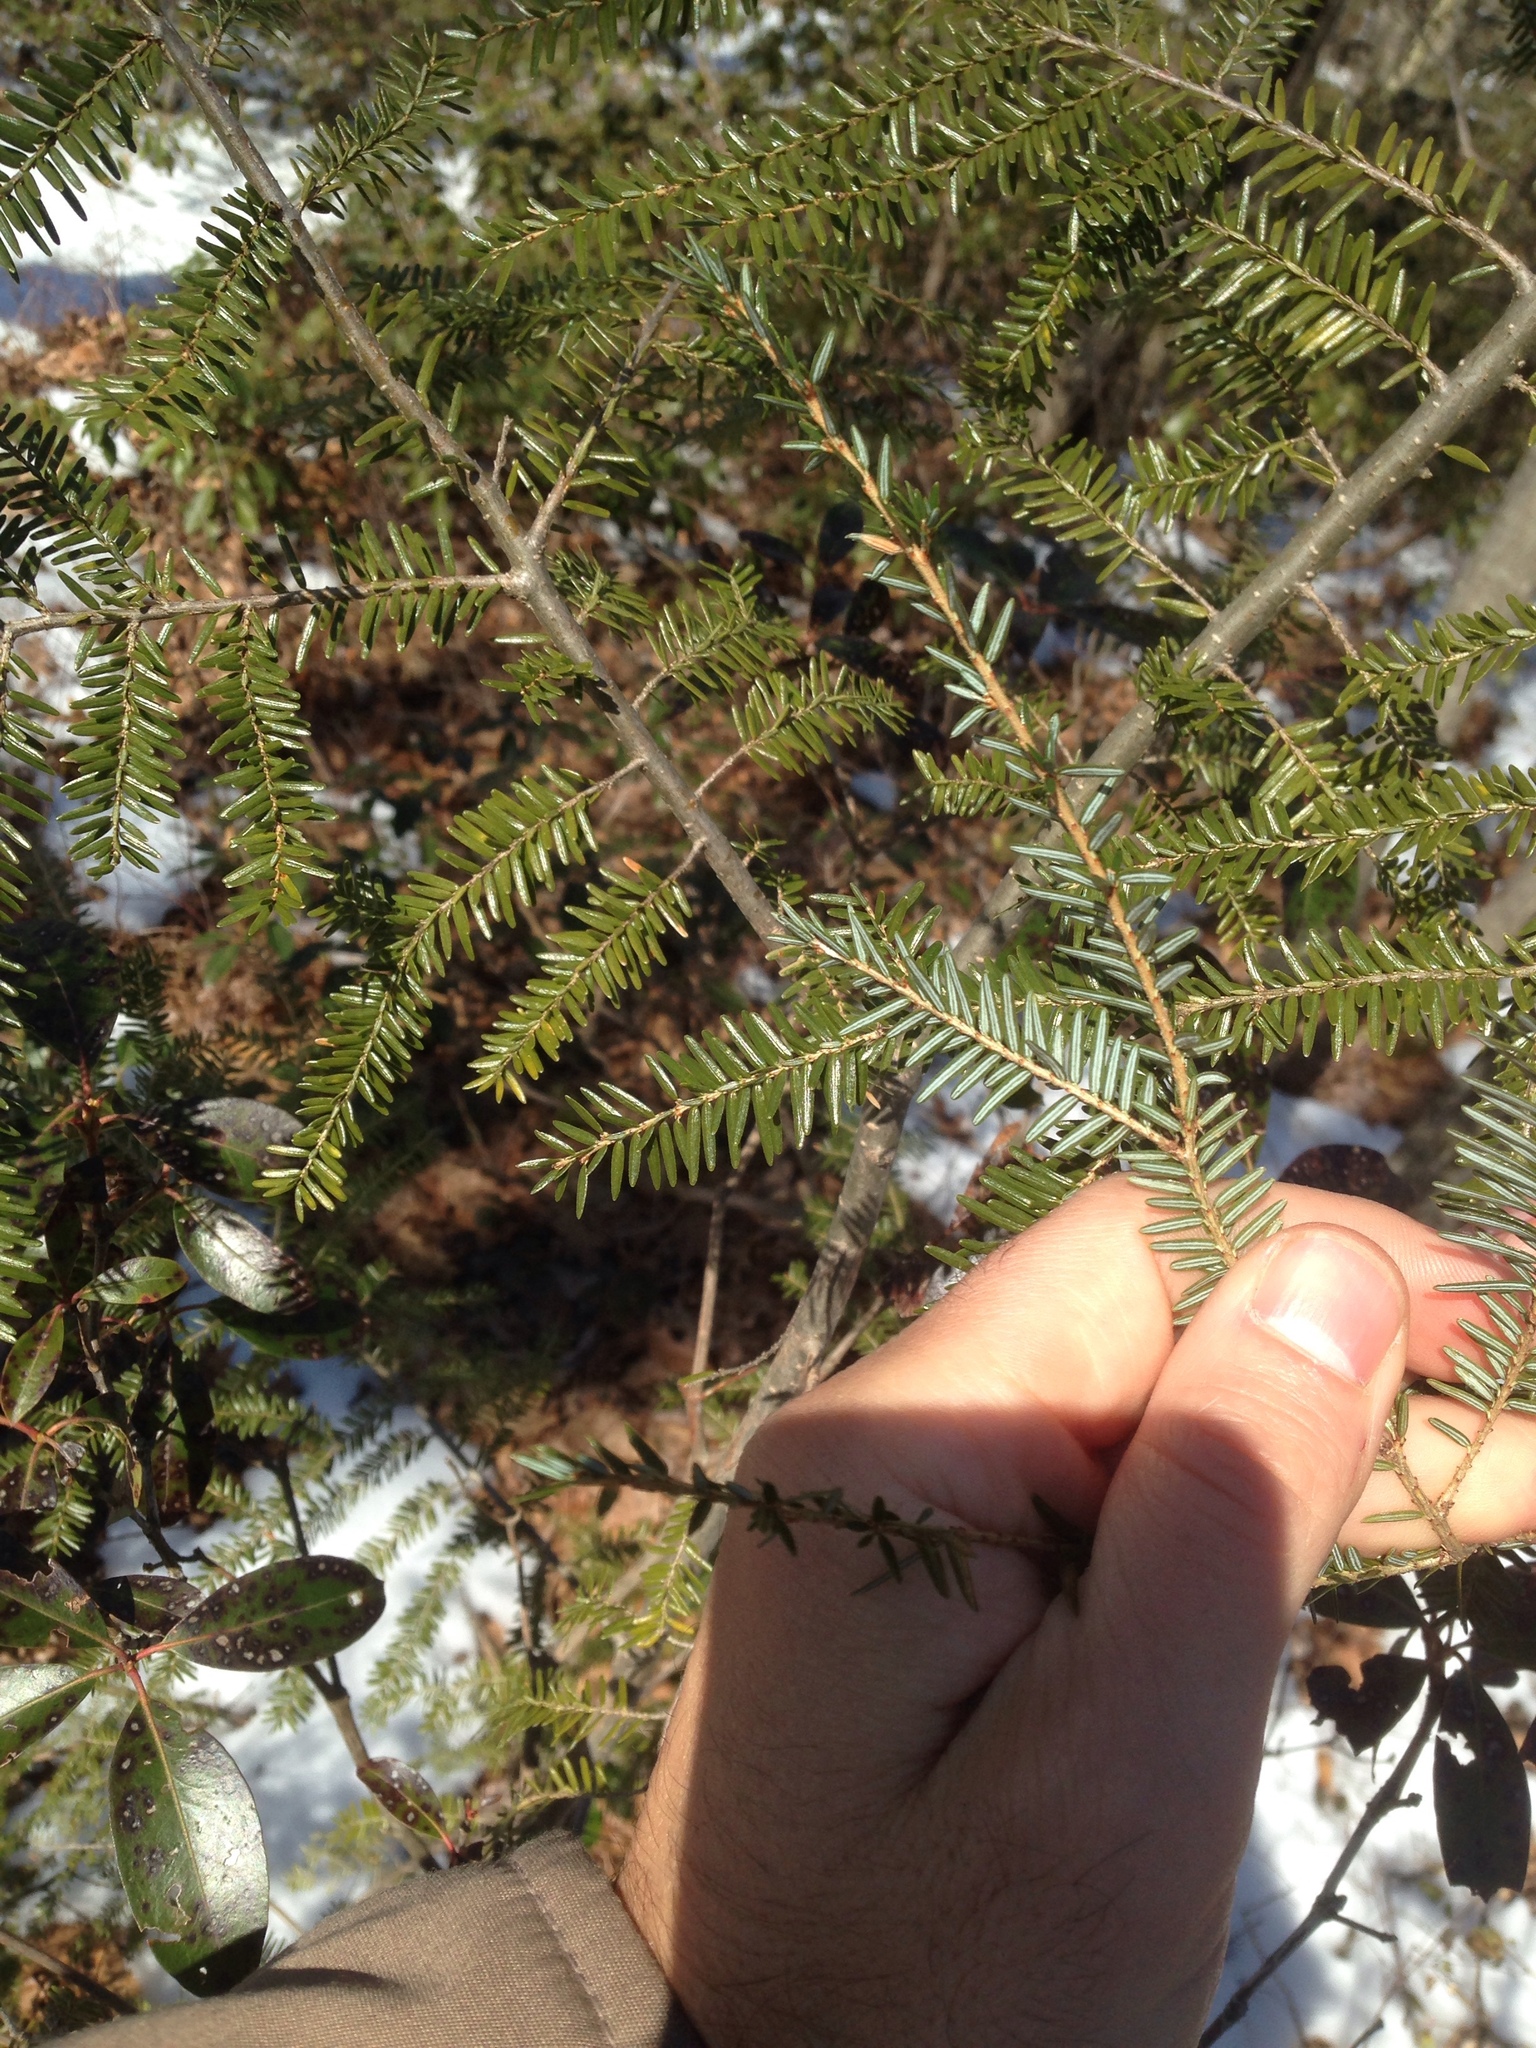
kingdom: Plantae
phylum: Tracheophyta
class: Pinopsida
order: Pinales
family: Pinaceae
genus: Tsuga
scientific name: Tsuga canadensis
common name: Eastern hemlock
